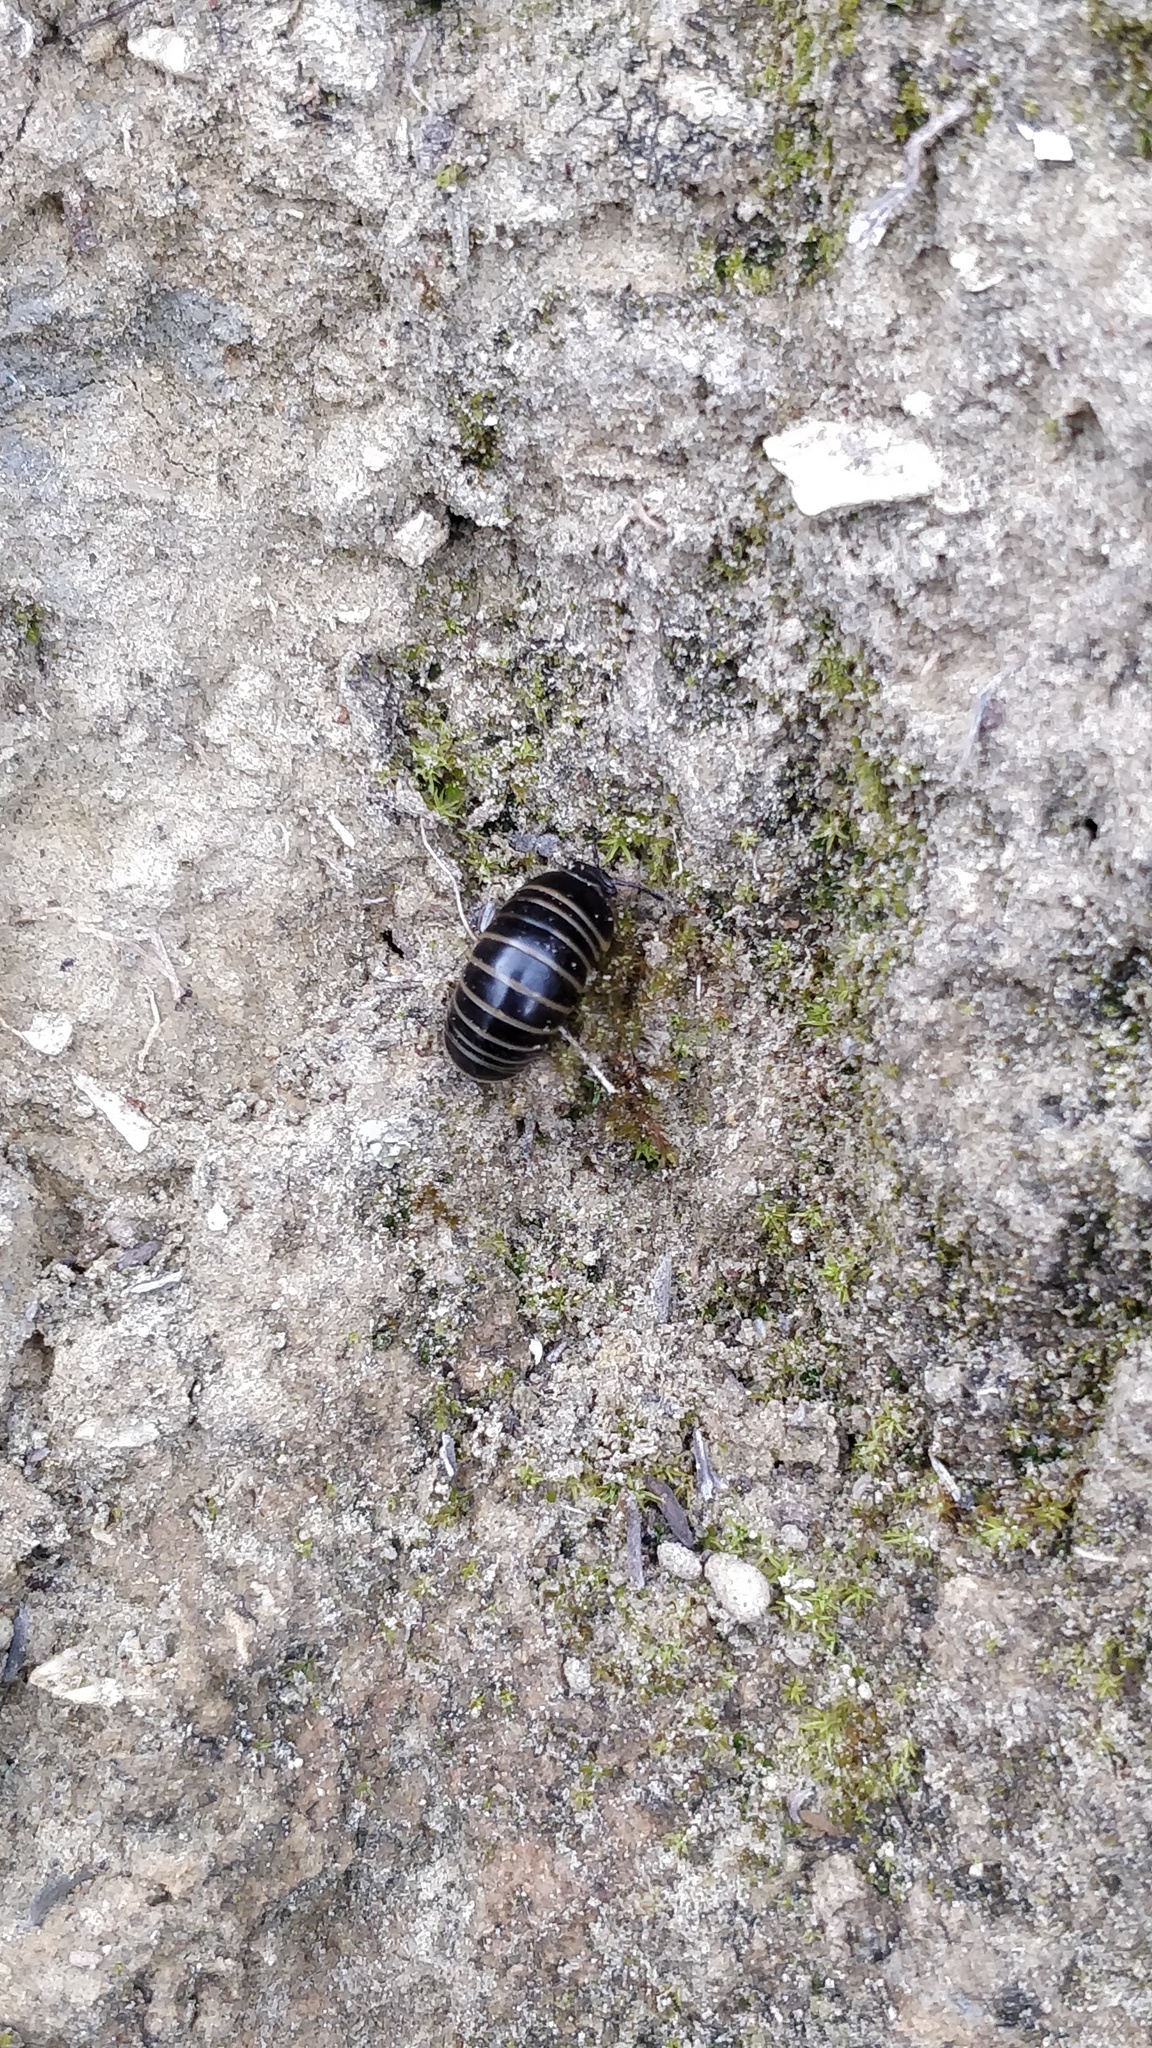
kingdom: Animalia
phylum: Arthropoda
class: Diplopoda
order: Glomerida
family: Glomeridae
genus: Glomeris
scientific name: Glomeris marginata
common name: Bordered pill millipede
